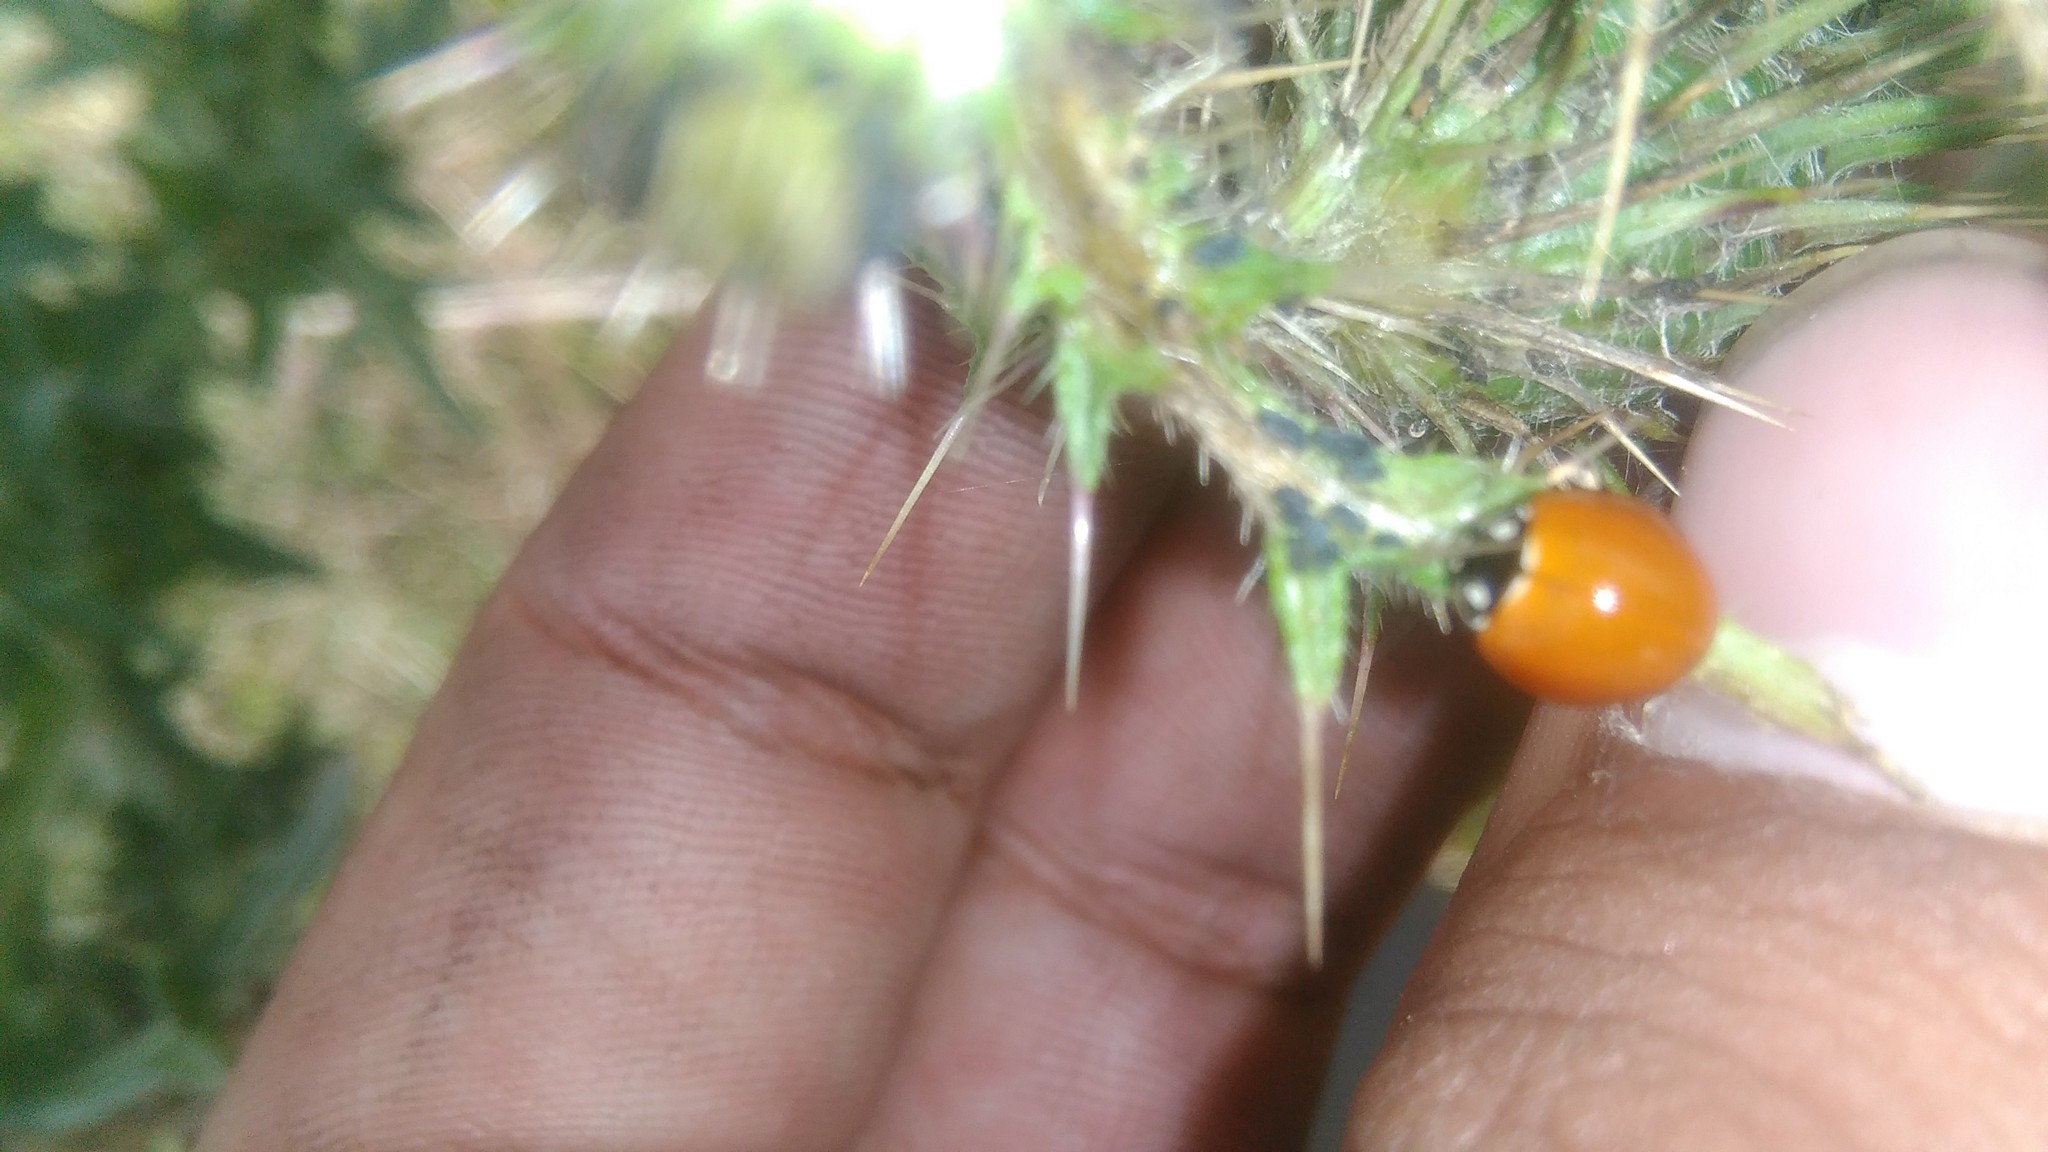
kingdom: Animalia
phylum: Arthropoda
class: Insecta
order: Coleoptera
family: Coccinellidae
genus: Cycloneda
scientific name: Cycloneda sanguinea
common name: Ladybird beetle
